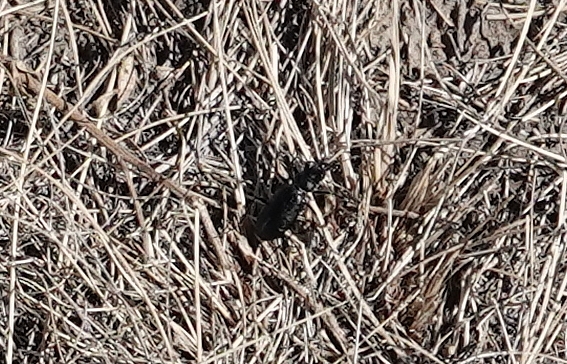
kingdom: Animalia
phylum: Arthropoda
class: Insecta
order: Coleoptera
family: Carabidae
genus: Cicindela
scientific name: Cicindela nebraskana
